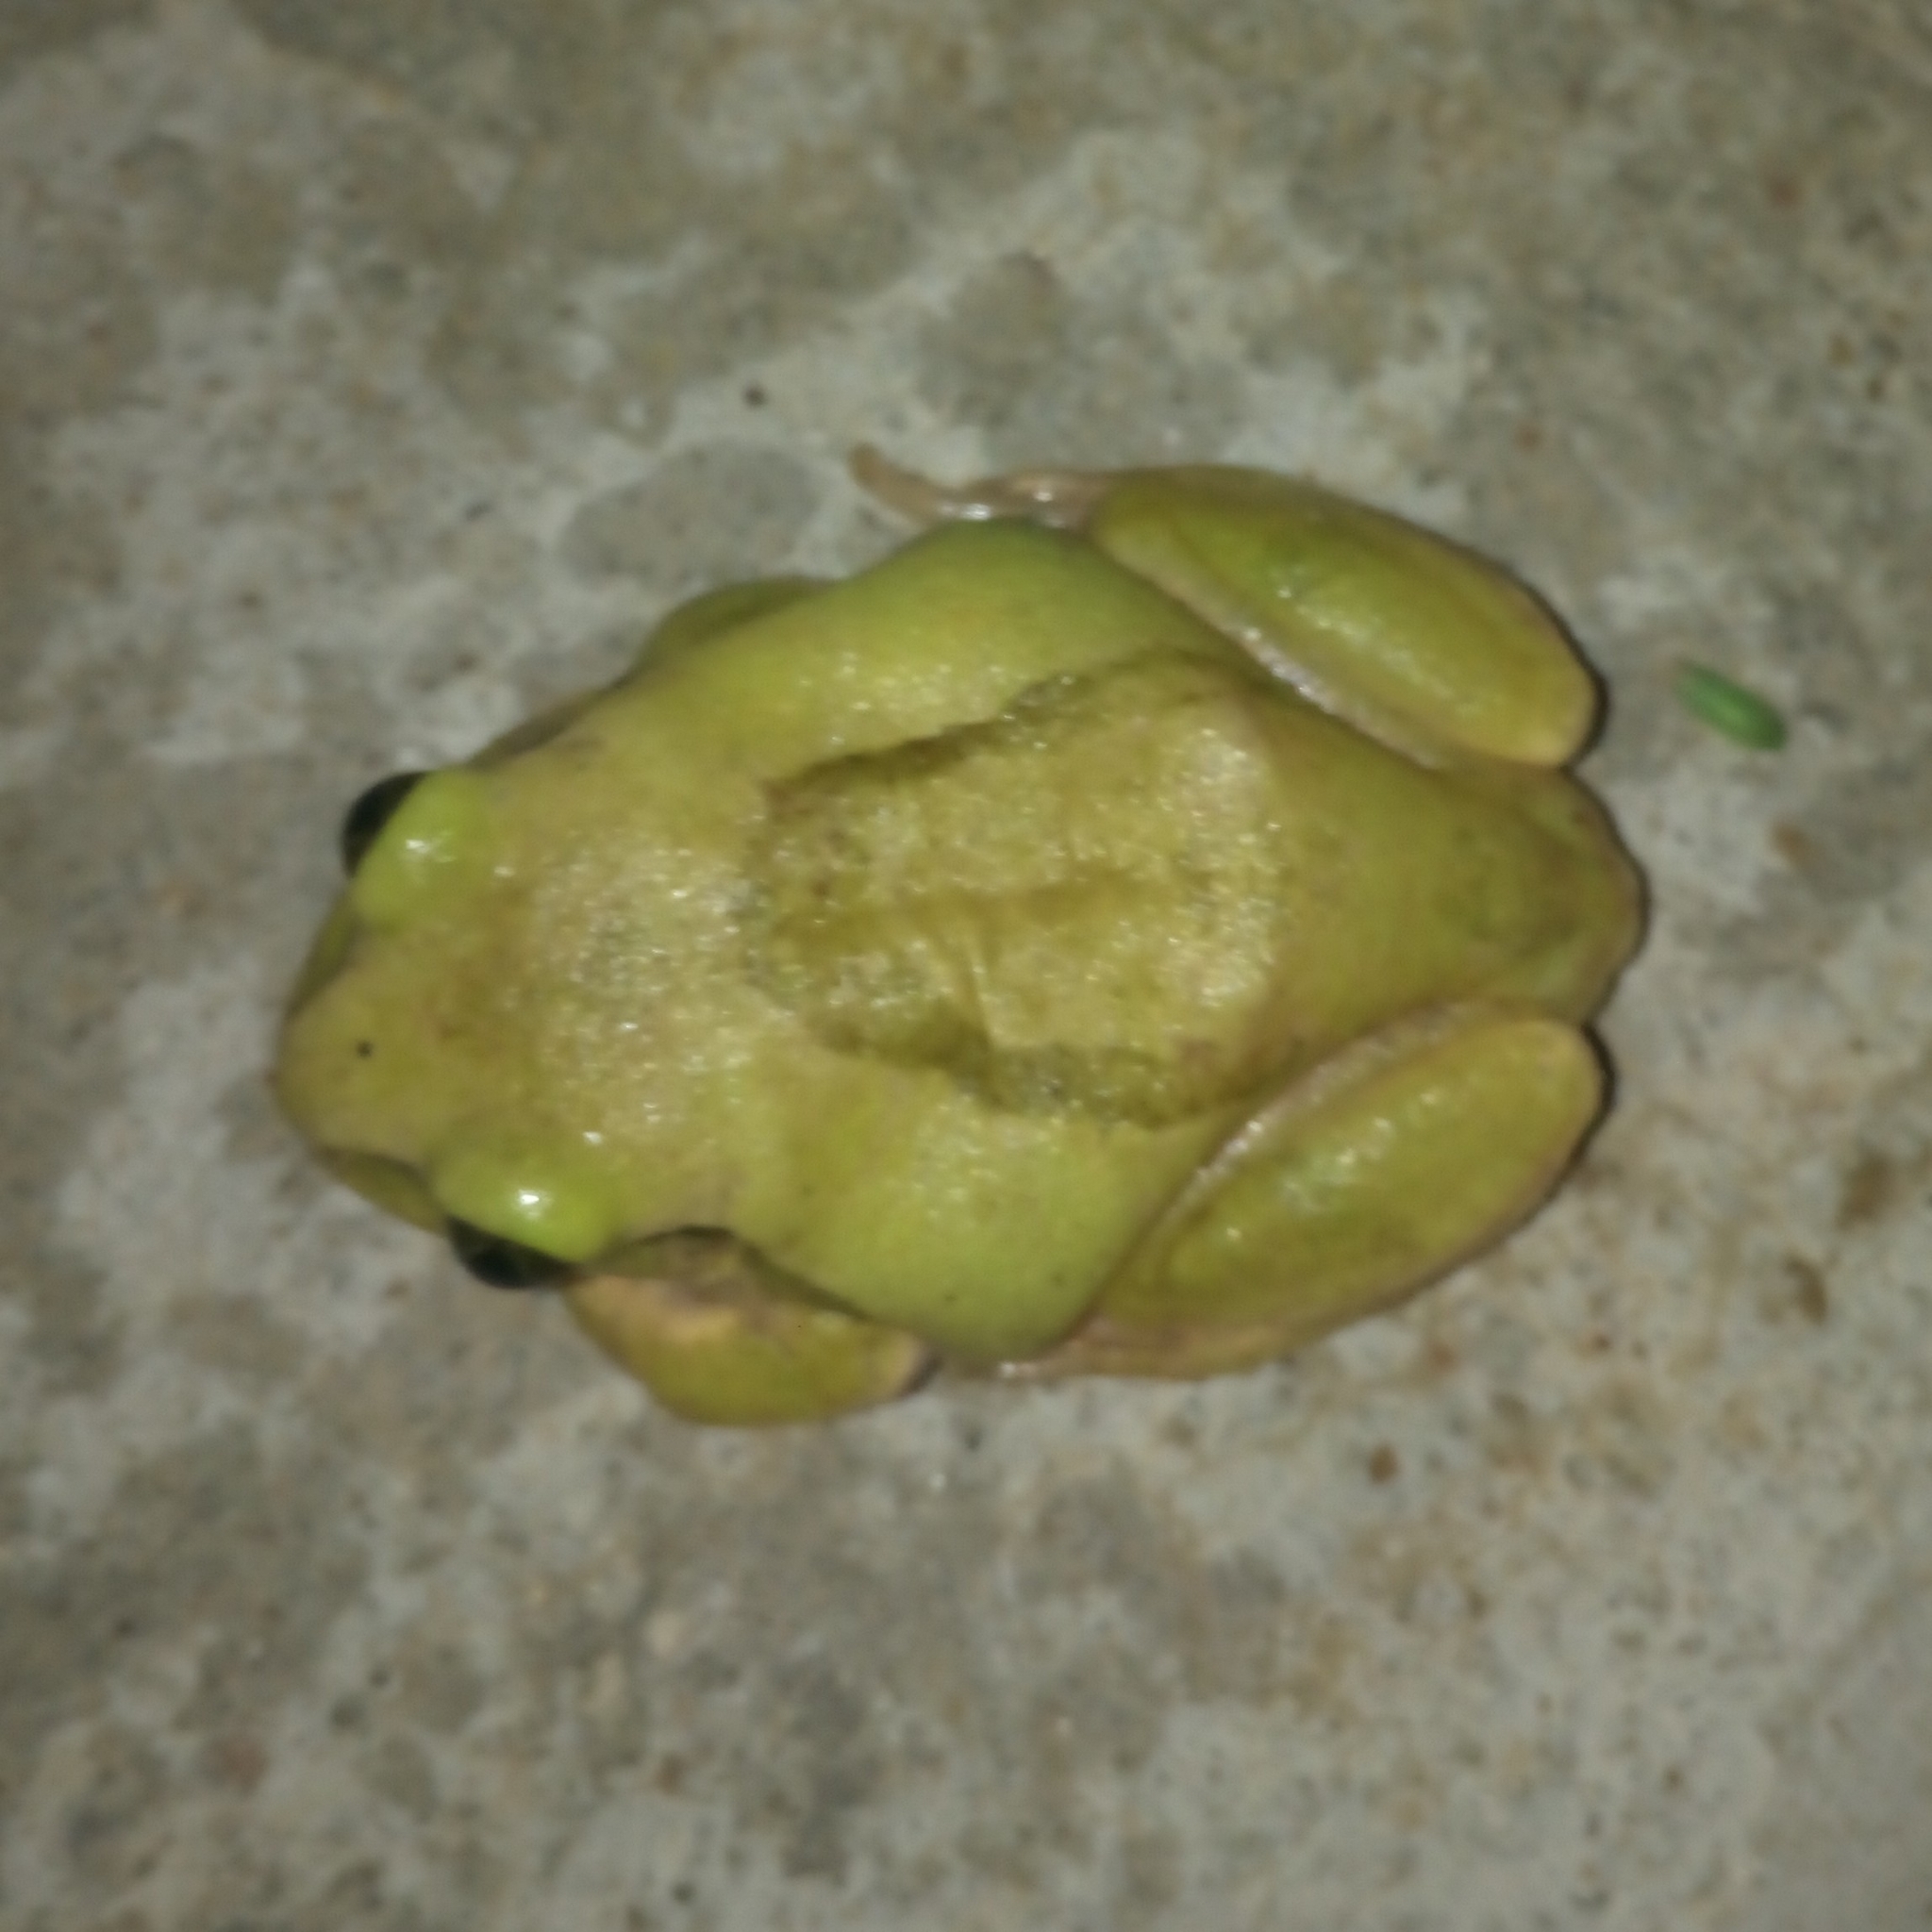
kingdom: Animalia
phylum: Chordata
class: Amphibia
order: Anura
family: Arthroleptidae
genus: Leptopelis
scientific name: Leptopelis viridis
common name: Savannah tree frog
